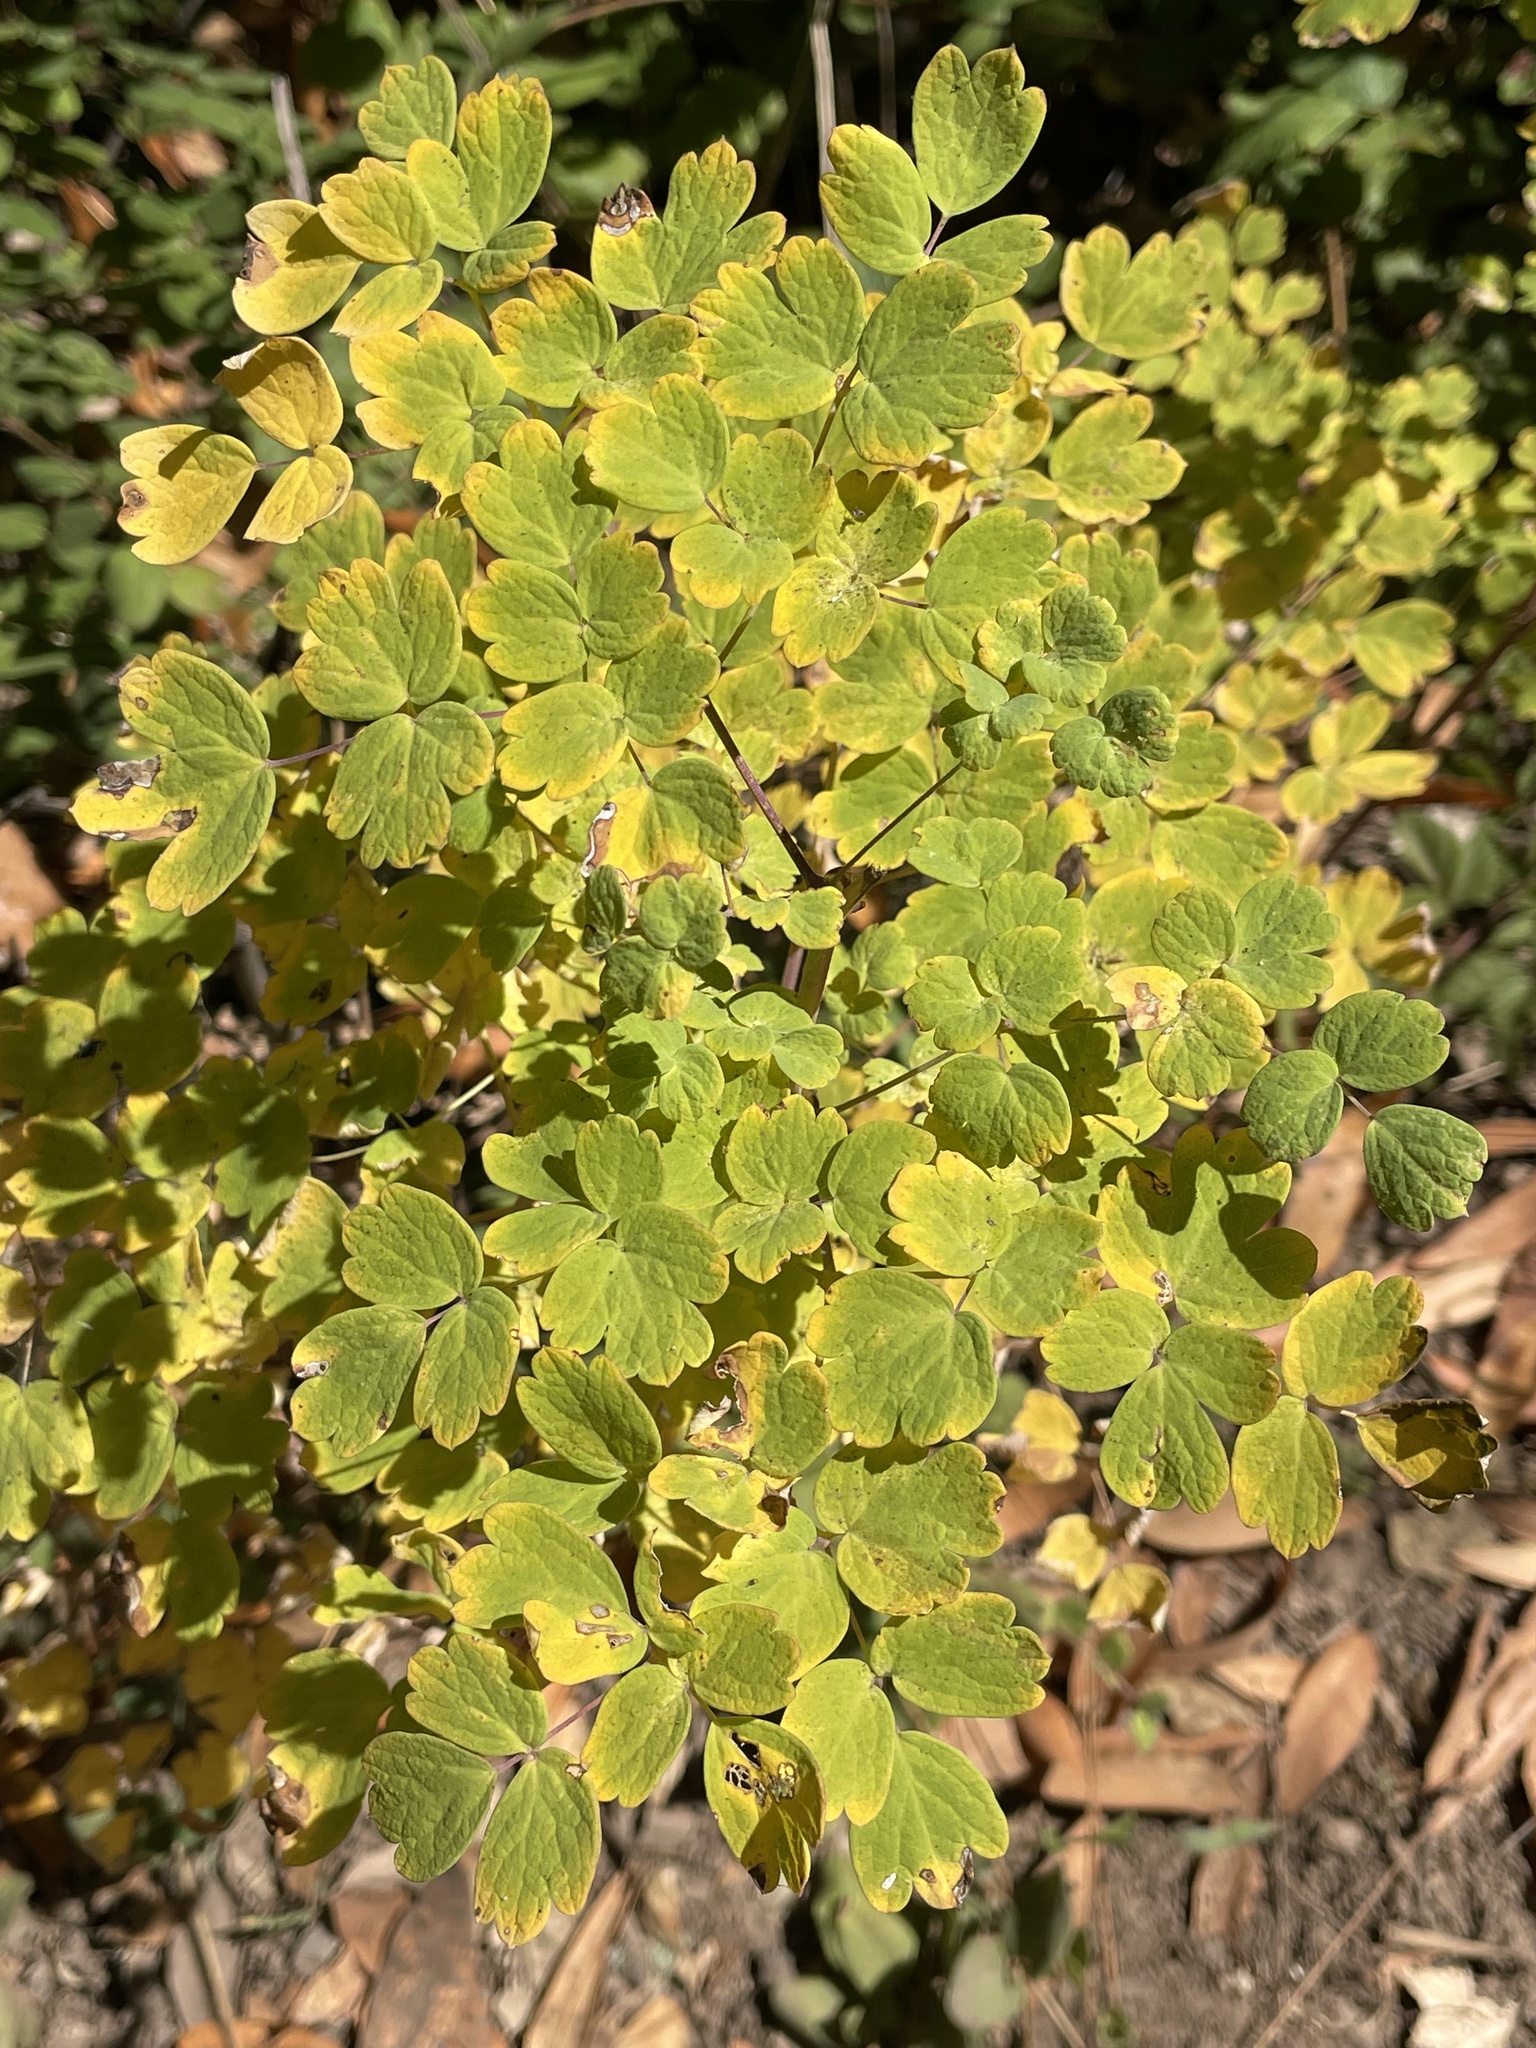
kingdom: Plantae
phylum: Tracheophyta
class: Magnoliopsida
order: Ranunculales
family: Ranunculaceae
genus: Thalictrum
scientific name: Thalictrum fendleri
